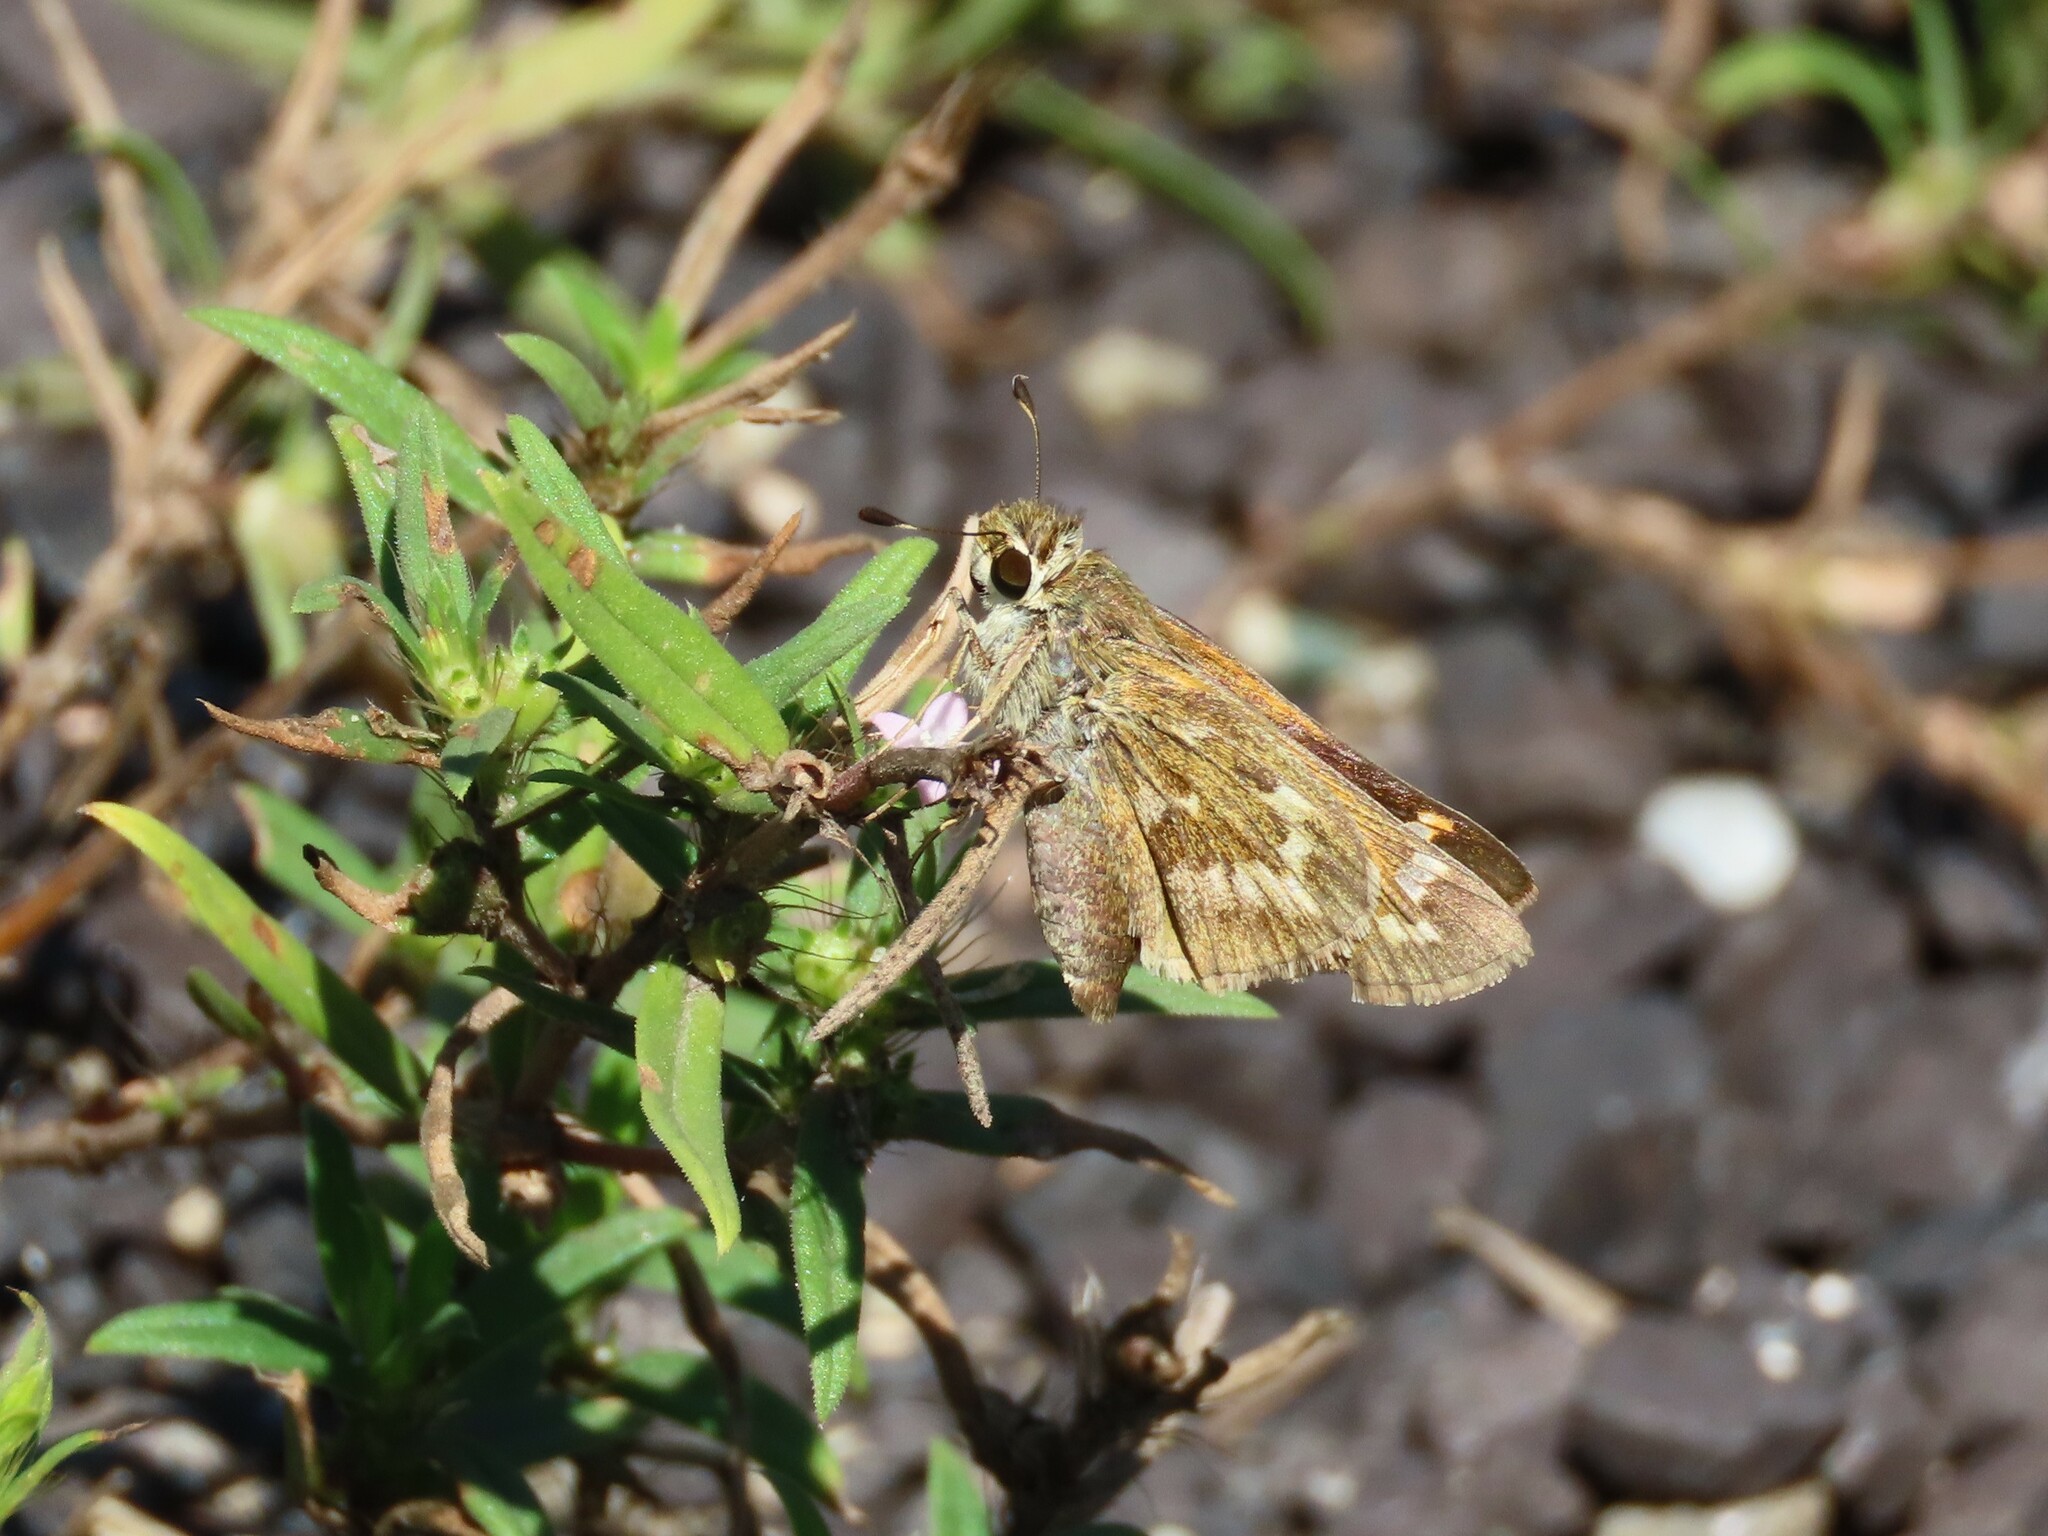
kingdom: Animalia
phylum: Arthropoda
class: Insecta
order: Lepidoptera
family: Hesperiidae
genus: Atalopedes
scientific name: Atalopedes
